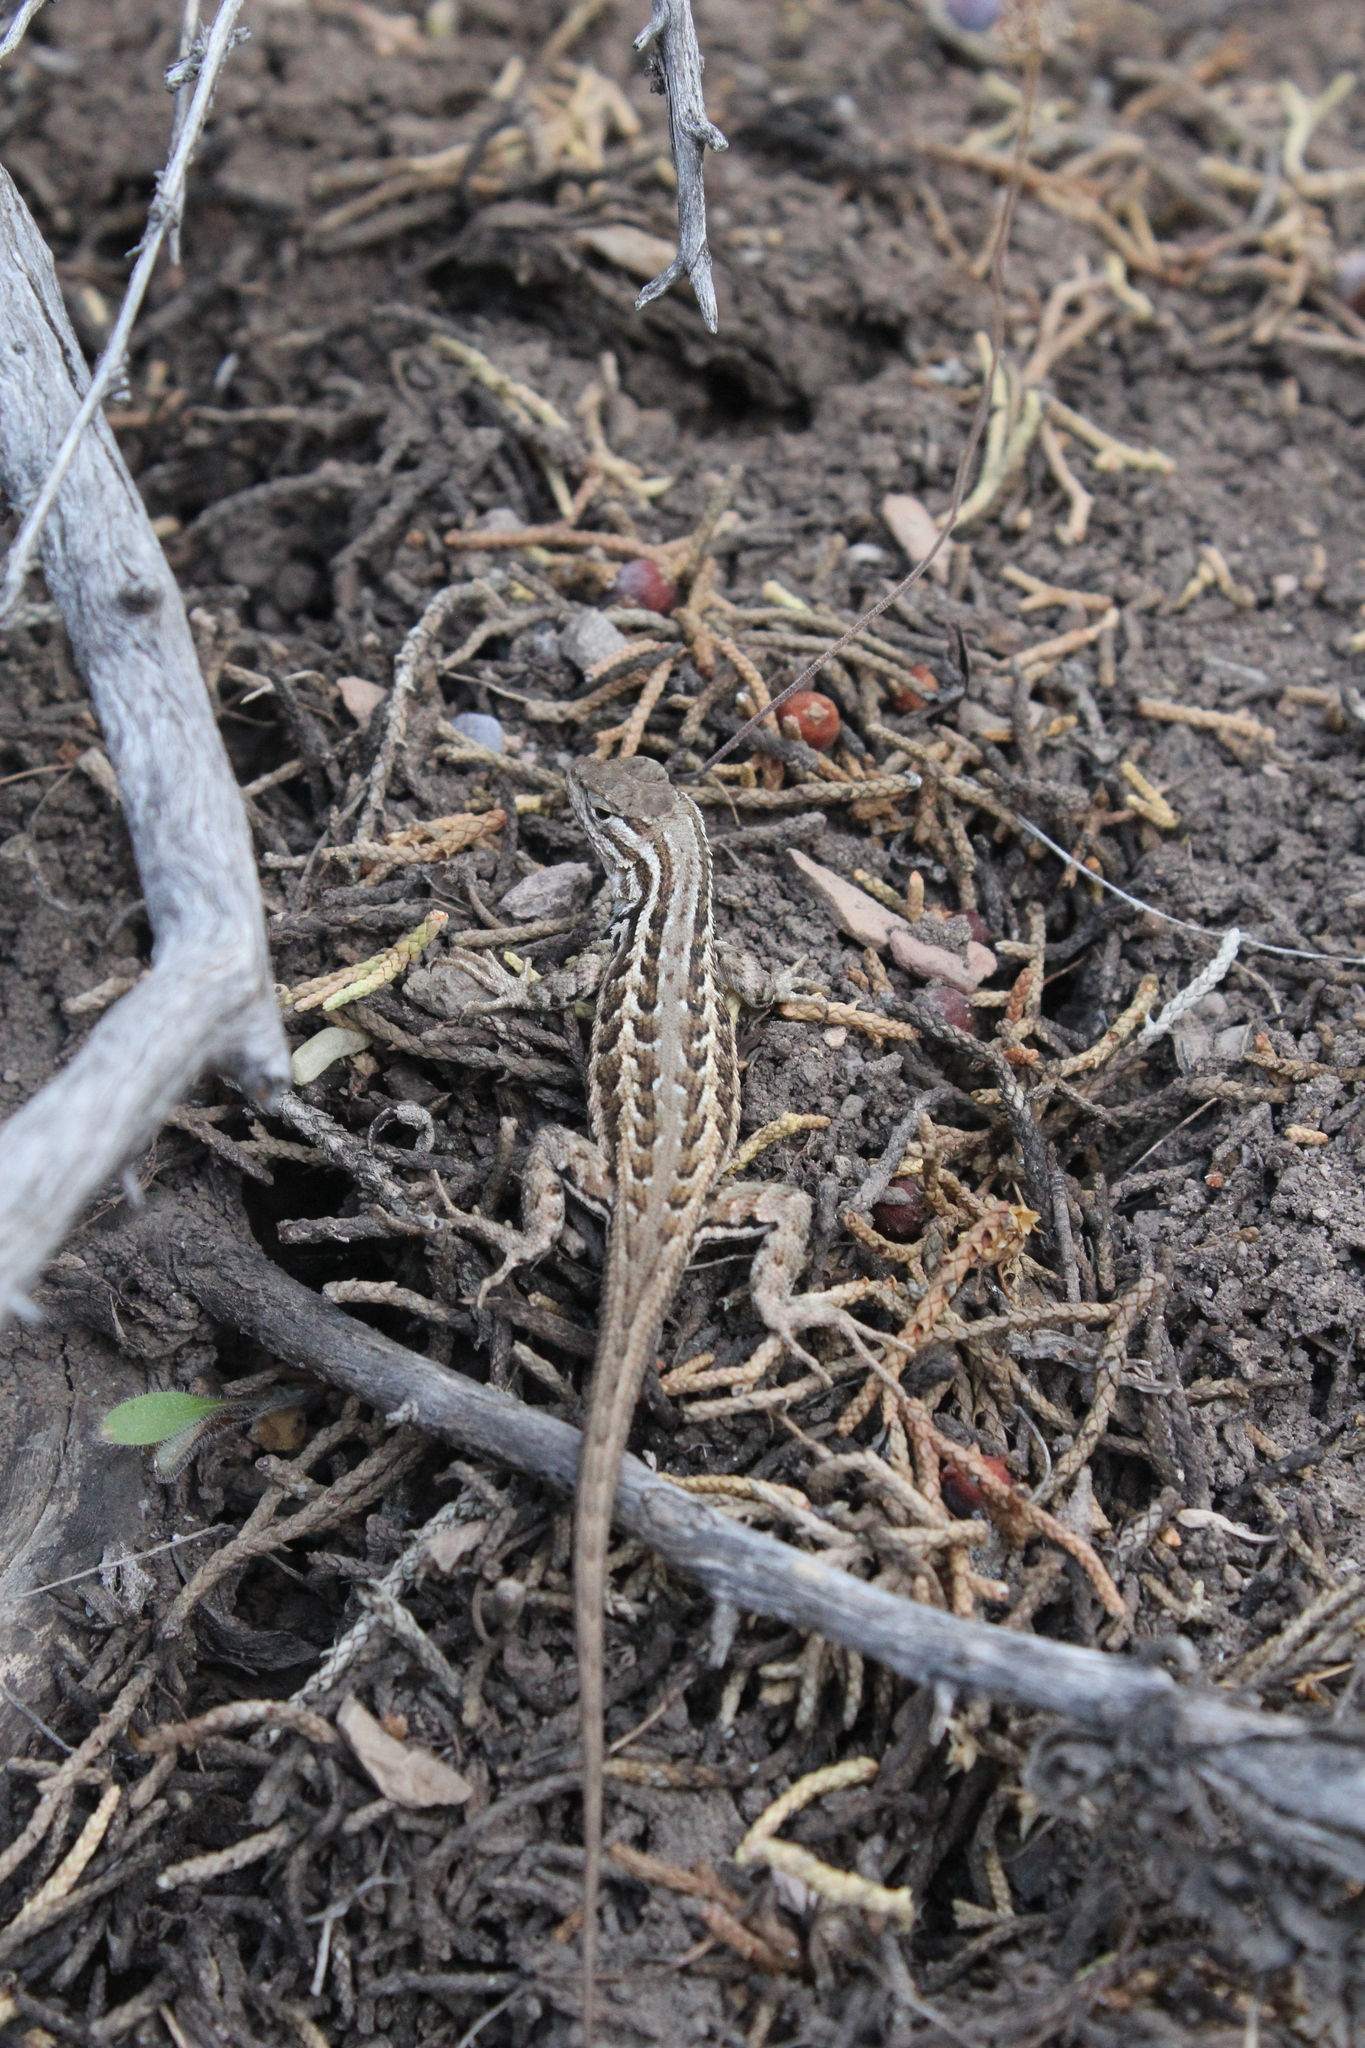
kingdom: Animalia
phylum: Chordata
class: Squamata
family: Phrynosomatidae
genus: Sceloporus
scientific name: Sceloporus graciosus
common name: Sagebrush lizard
